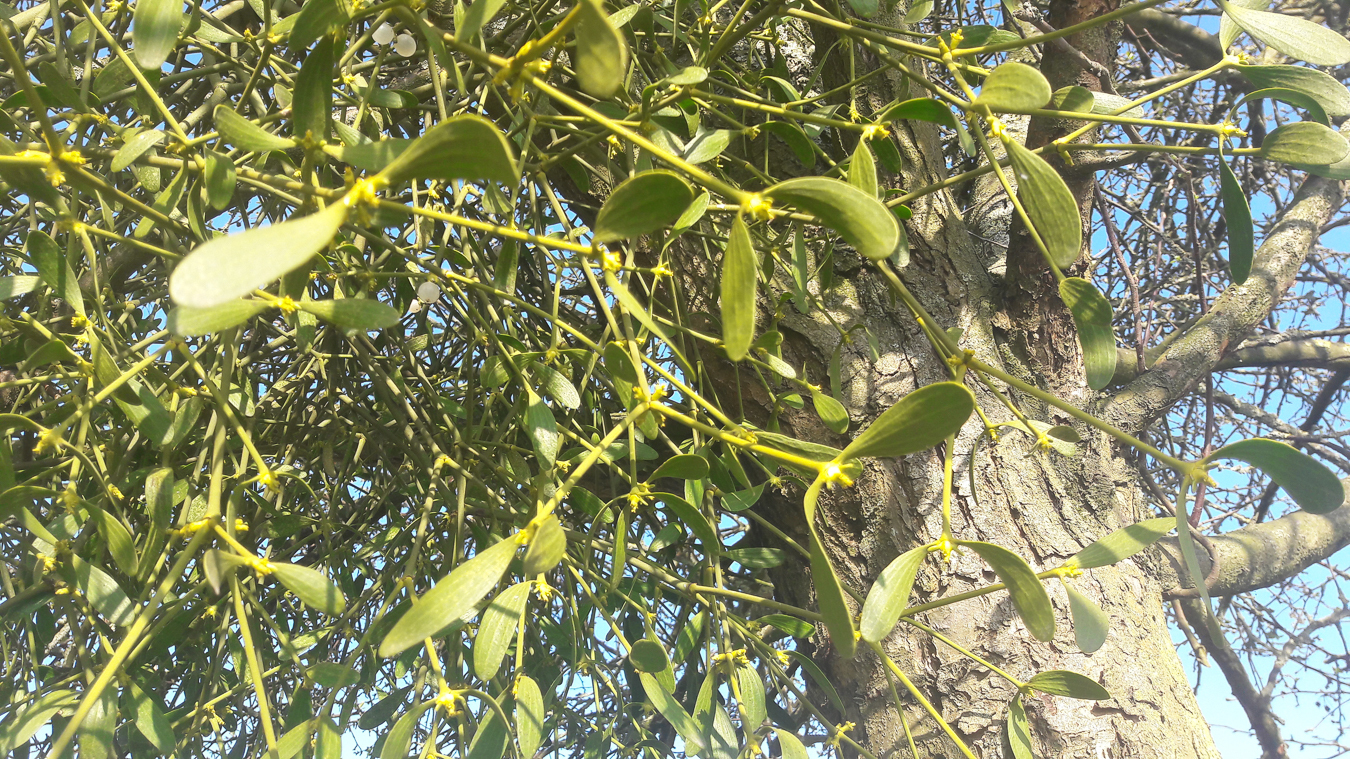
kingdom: Plantae
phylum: Tracheophyta
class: Magnoliopsida
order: Santalales
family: Viscaceae
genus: Viscum
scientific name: Viscum album
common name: Mistletoe
